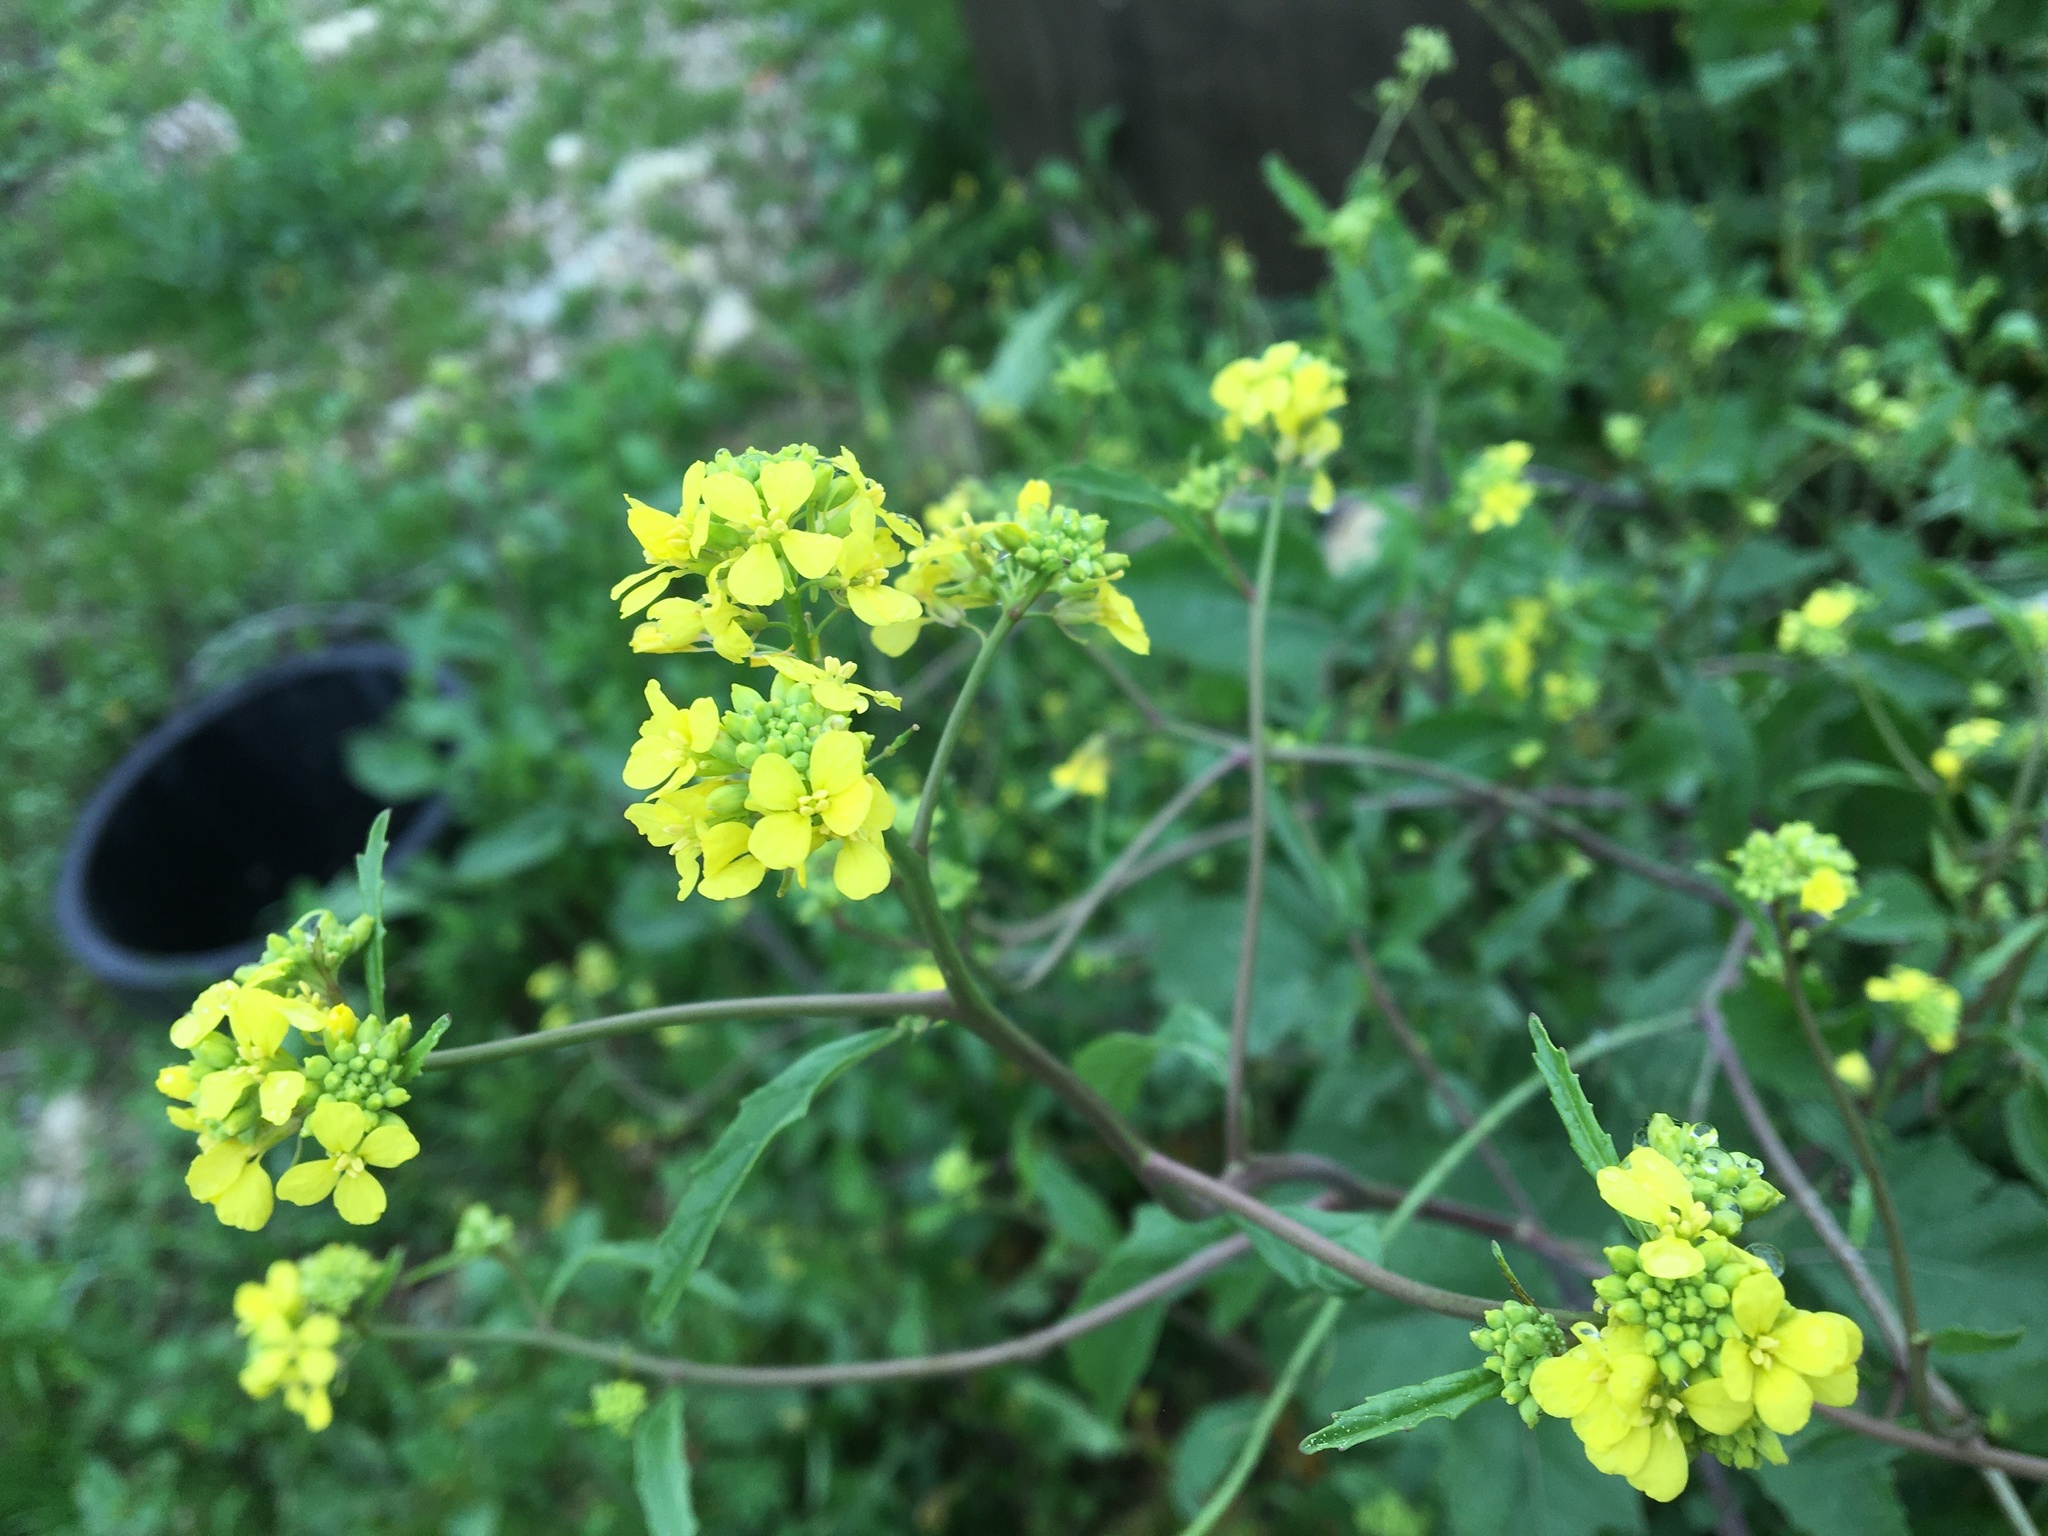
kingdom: Plantae
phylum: Tracheophyta
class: Magnoliopsida
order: Brassicales
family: Brassicaceae
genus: Rapistrum
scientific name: Rapistrum rugosum
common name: Annual bastardcabbage
